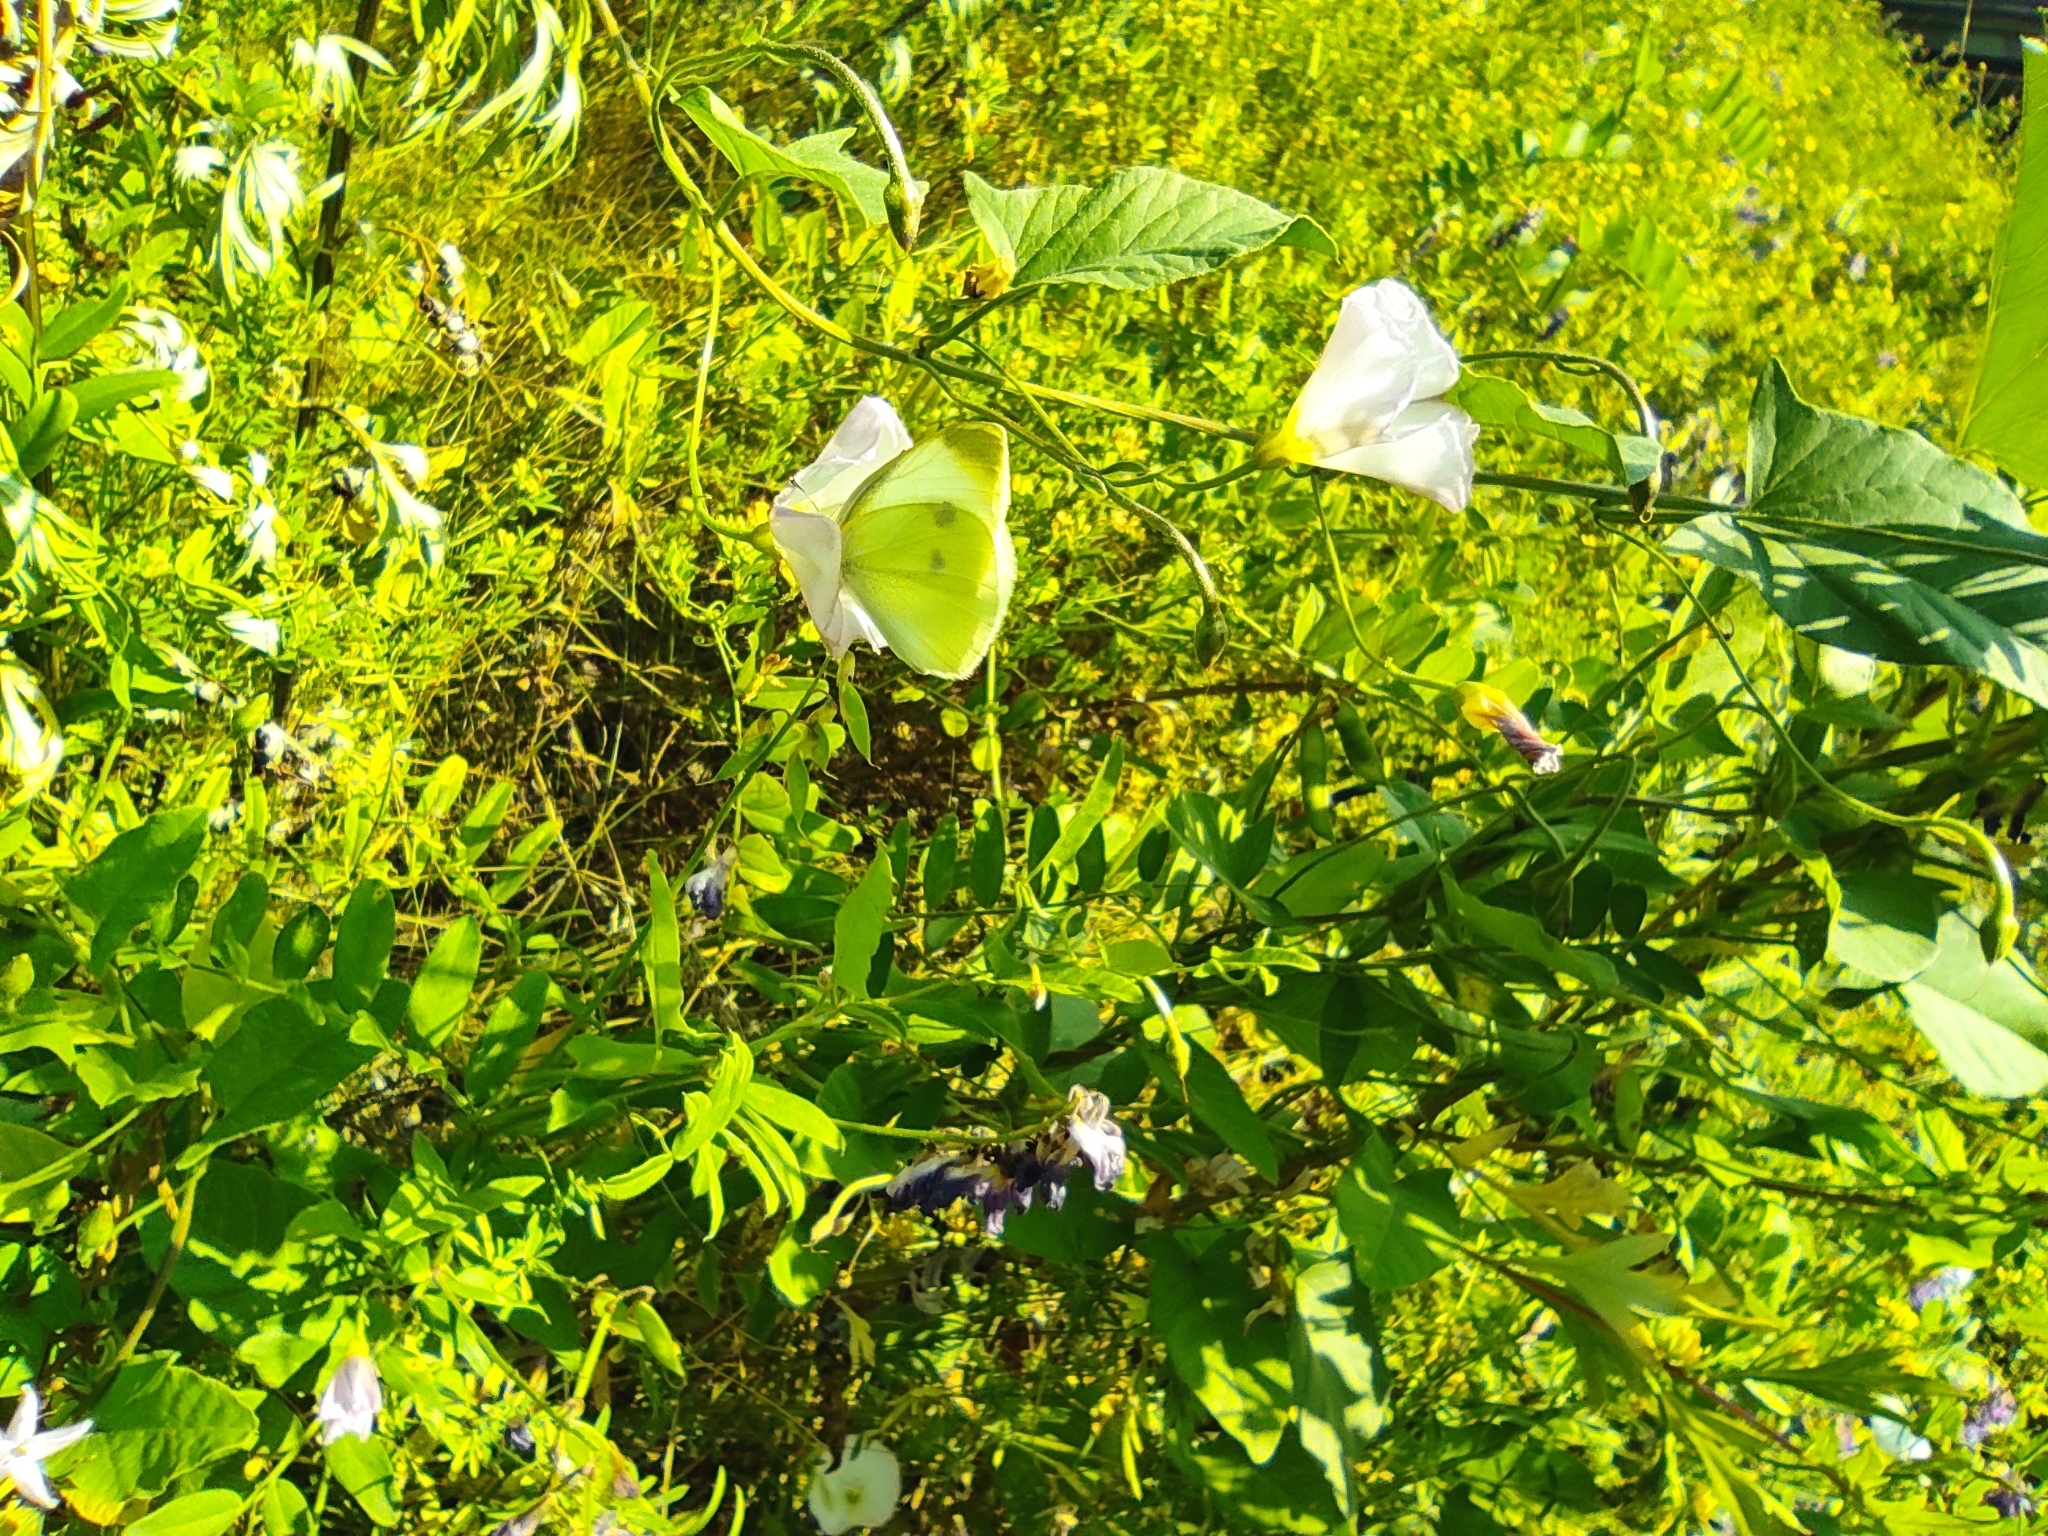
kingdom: Animalia
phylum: Arthropoda
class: Insecta
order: Lepidoptera
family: Pieridae
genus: Pieris
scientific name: Pieris rapae
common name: Small white
